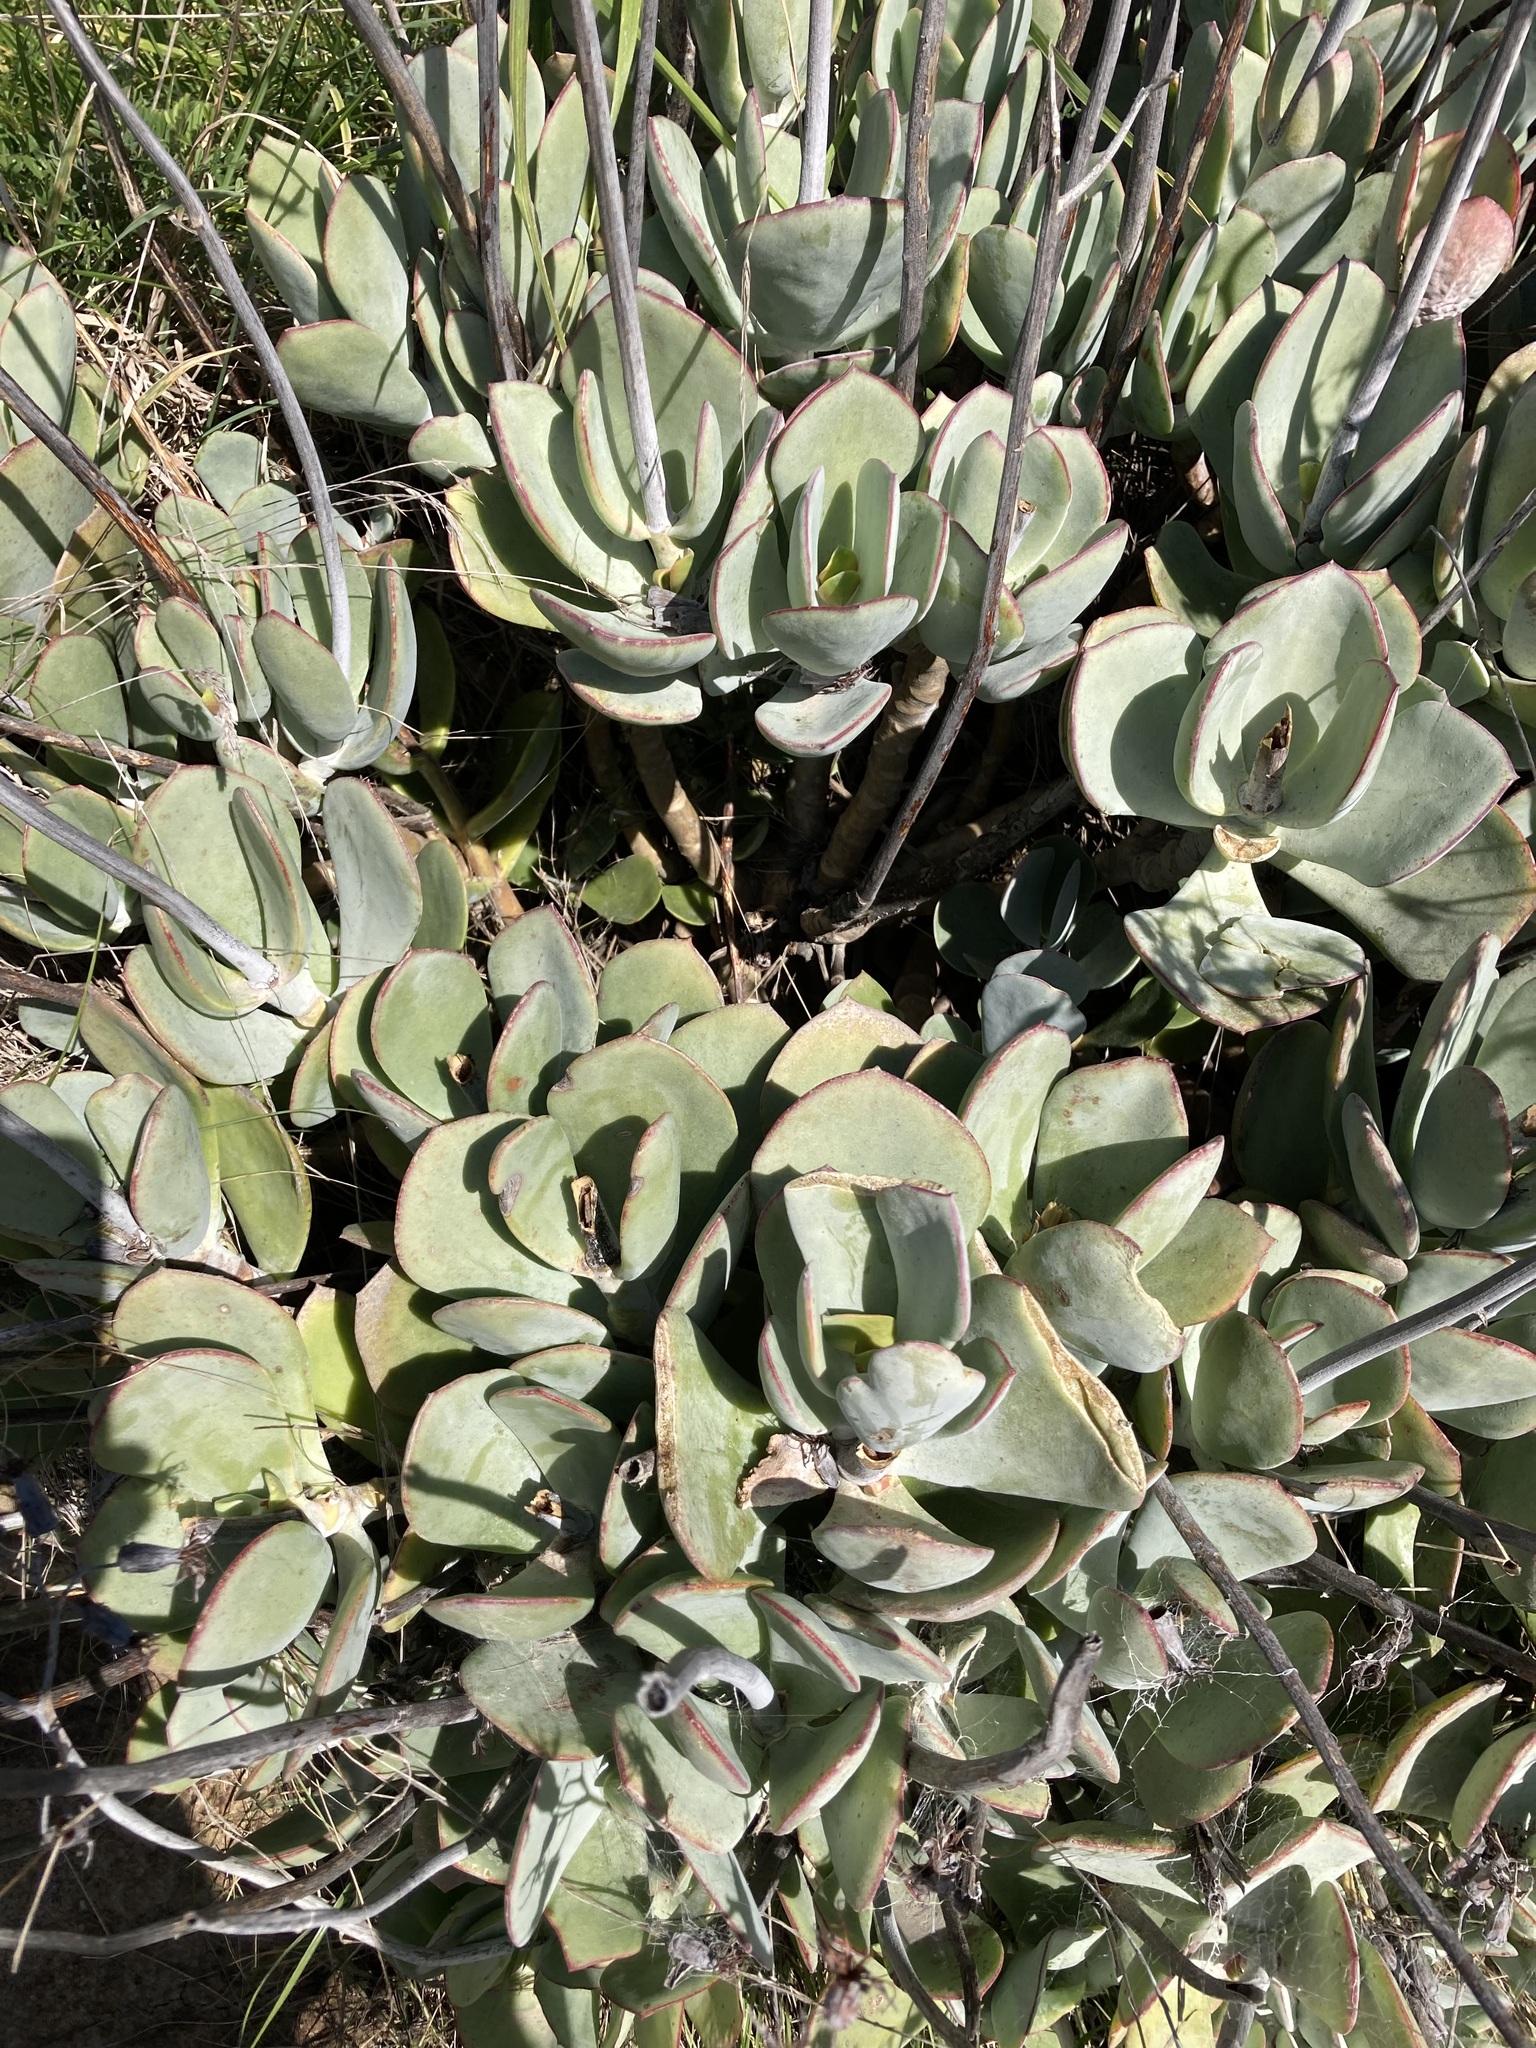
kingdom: Plantae
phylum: Tracheophyta
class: Magnoliopsida
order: Saxifragales
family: Crassulaceae
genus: Cotyledon
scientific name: Cotyledon orbiculata
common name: Pig's ear
